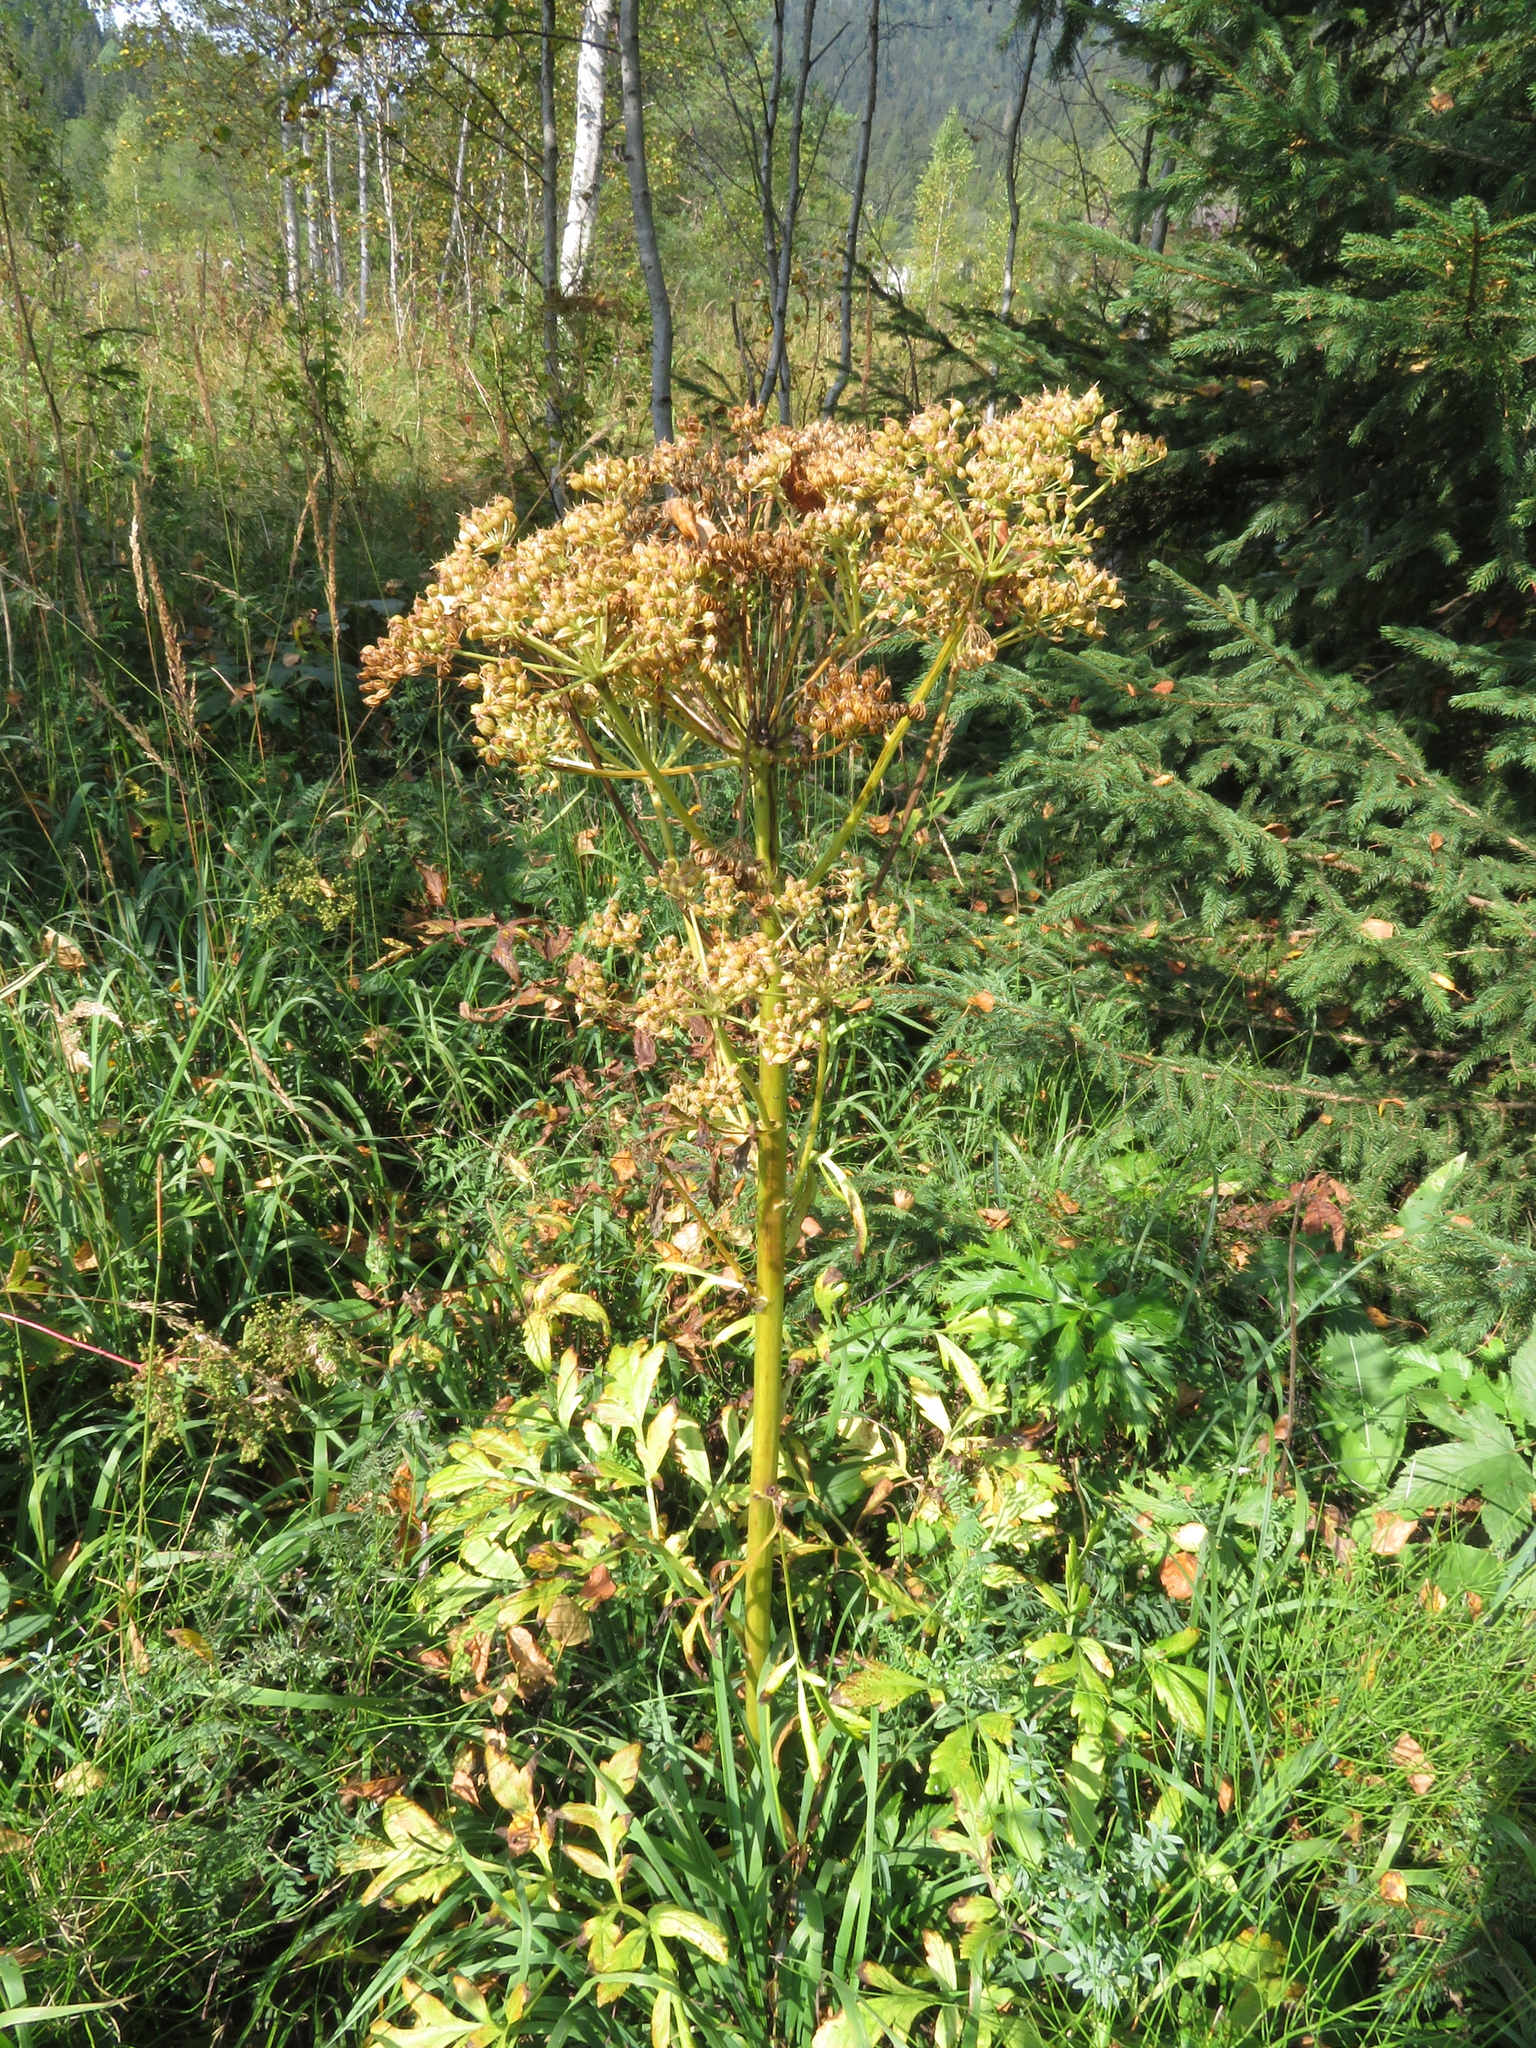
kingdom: Plantae
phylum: Tracheophyta
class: Magnoliopsida
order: Apiales
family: Apiaceae
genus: Pleurospermum
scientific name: Pleurospermum austriacum
